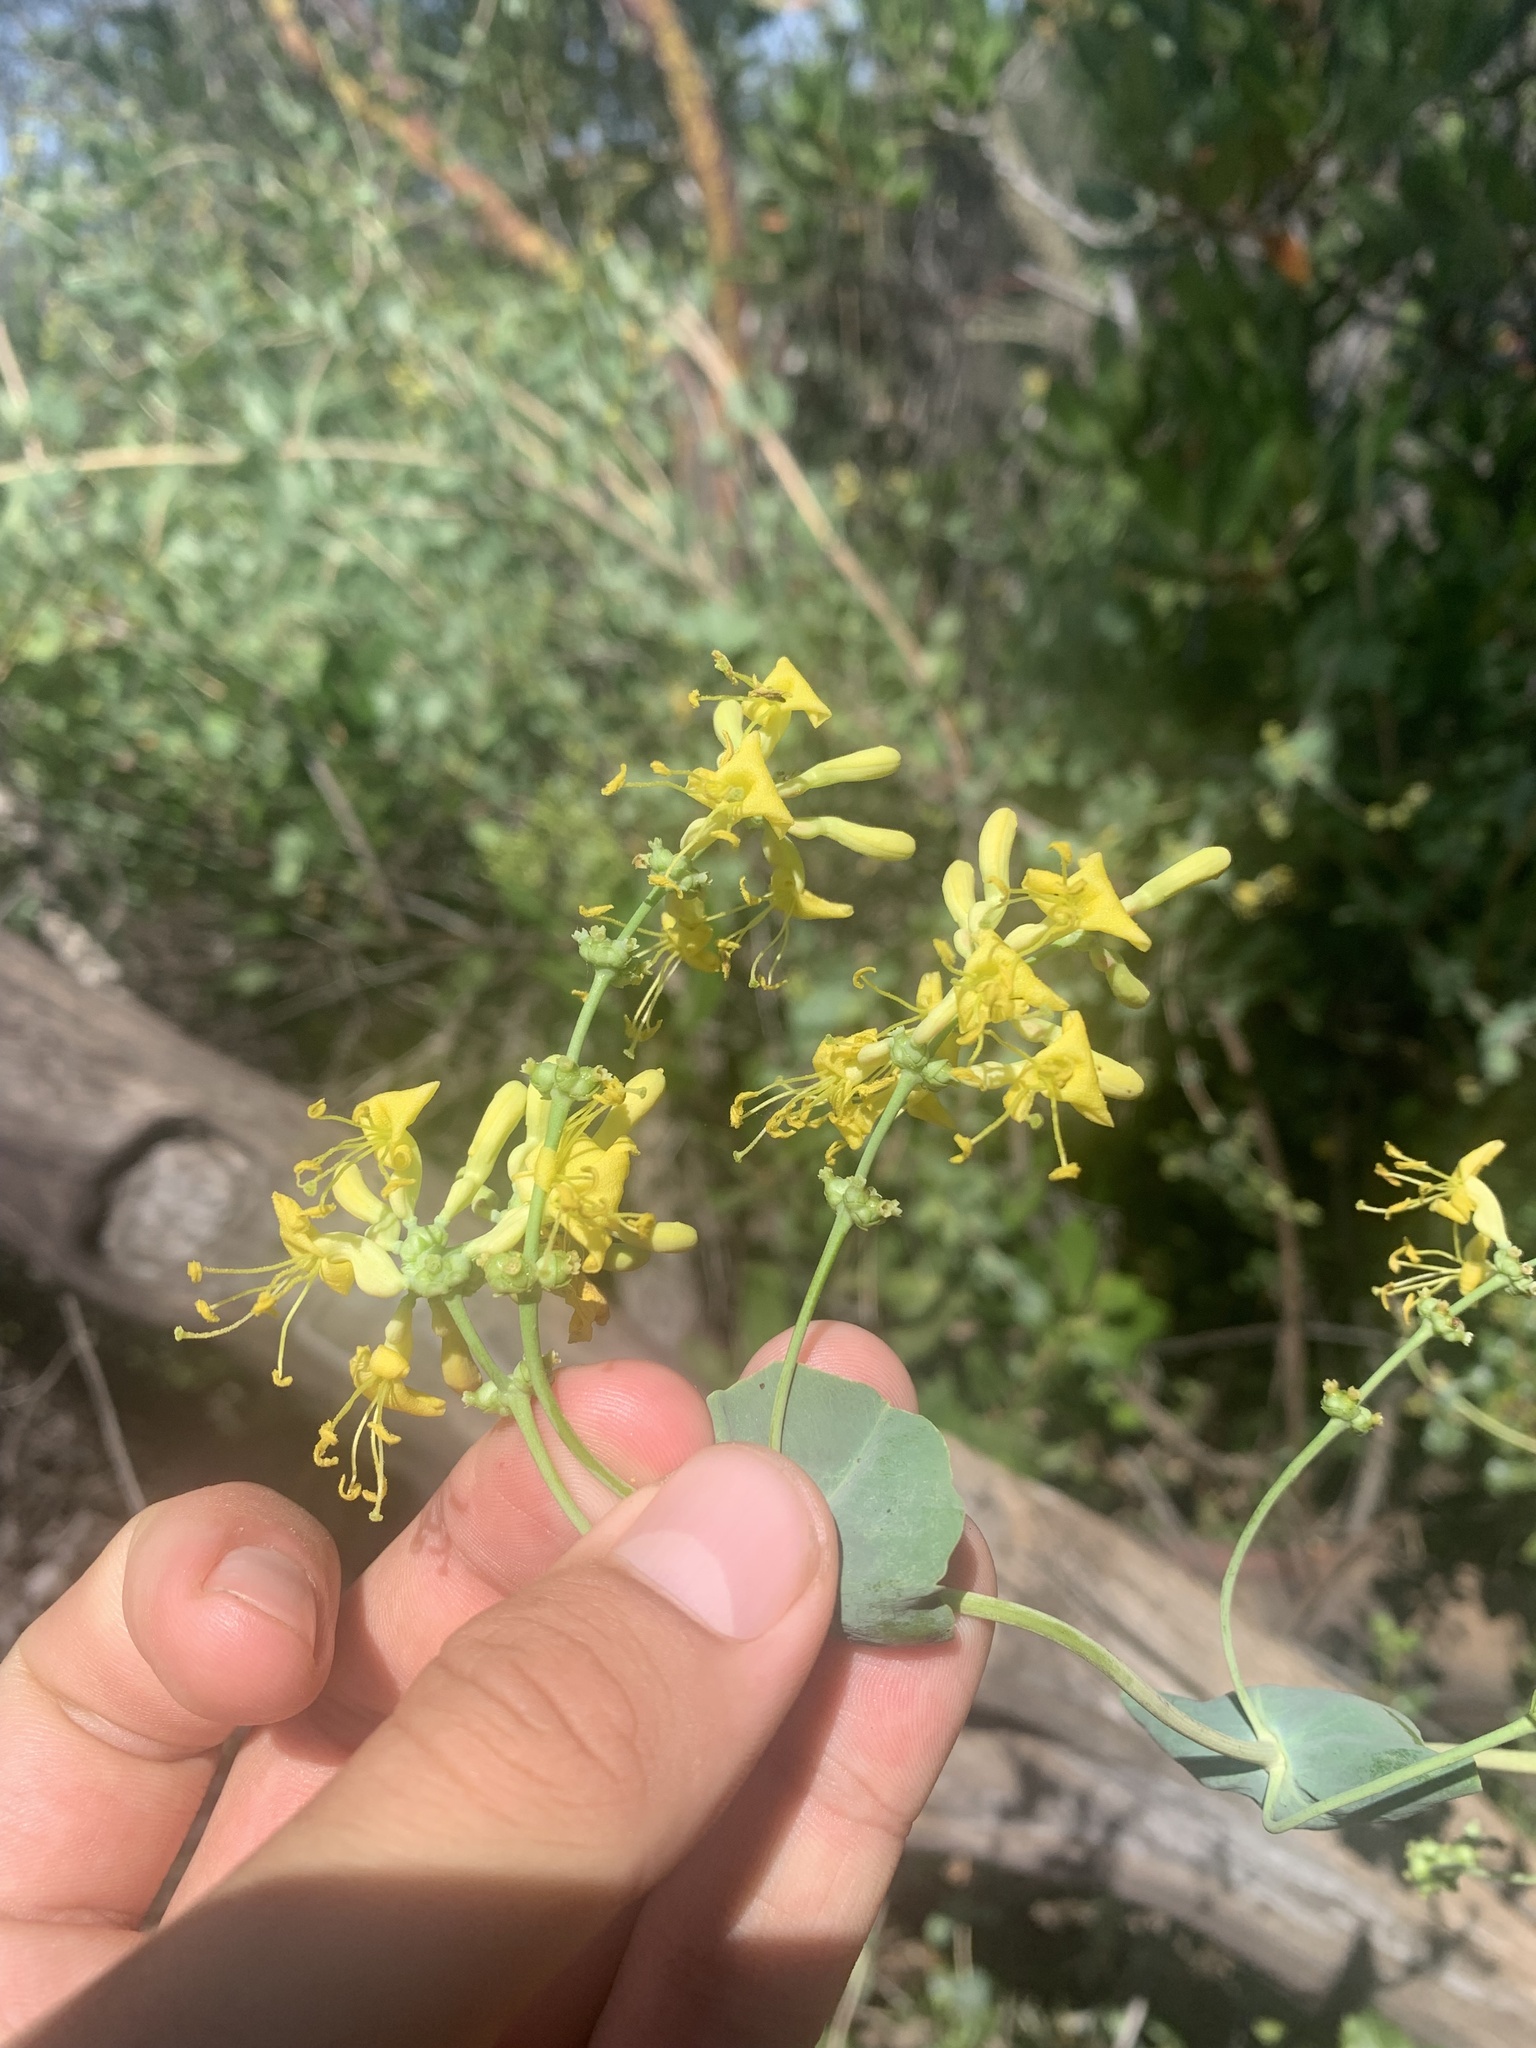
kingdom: Plantae
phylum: Tracheophyta
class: Magnoliopsida
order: Dipsacales
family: Caprifoliaceae
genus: Lonicera
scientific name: Lonicera interrupta
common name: Chaparral honeysuckle
